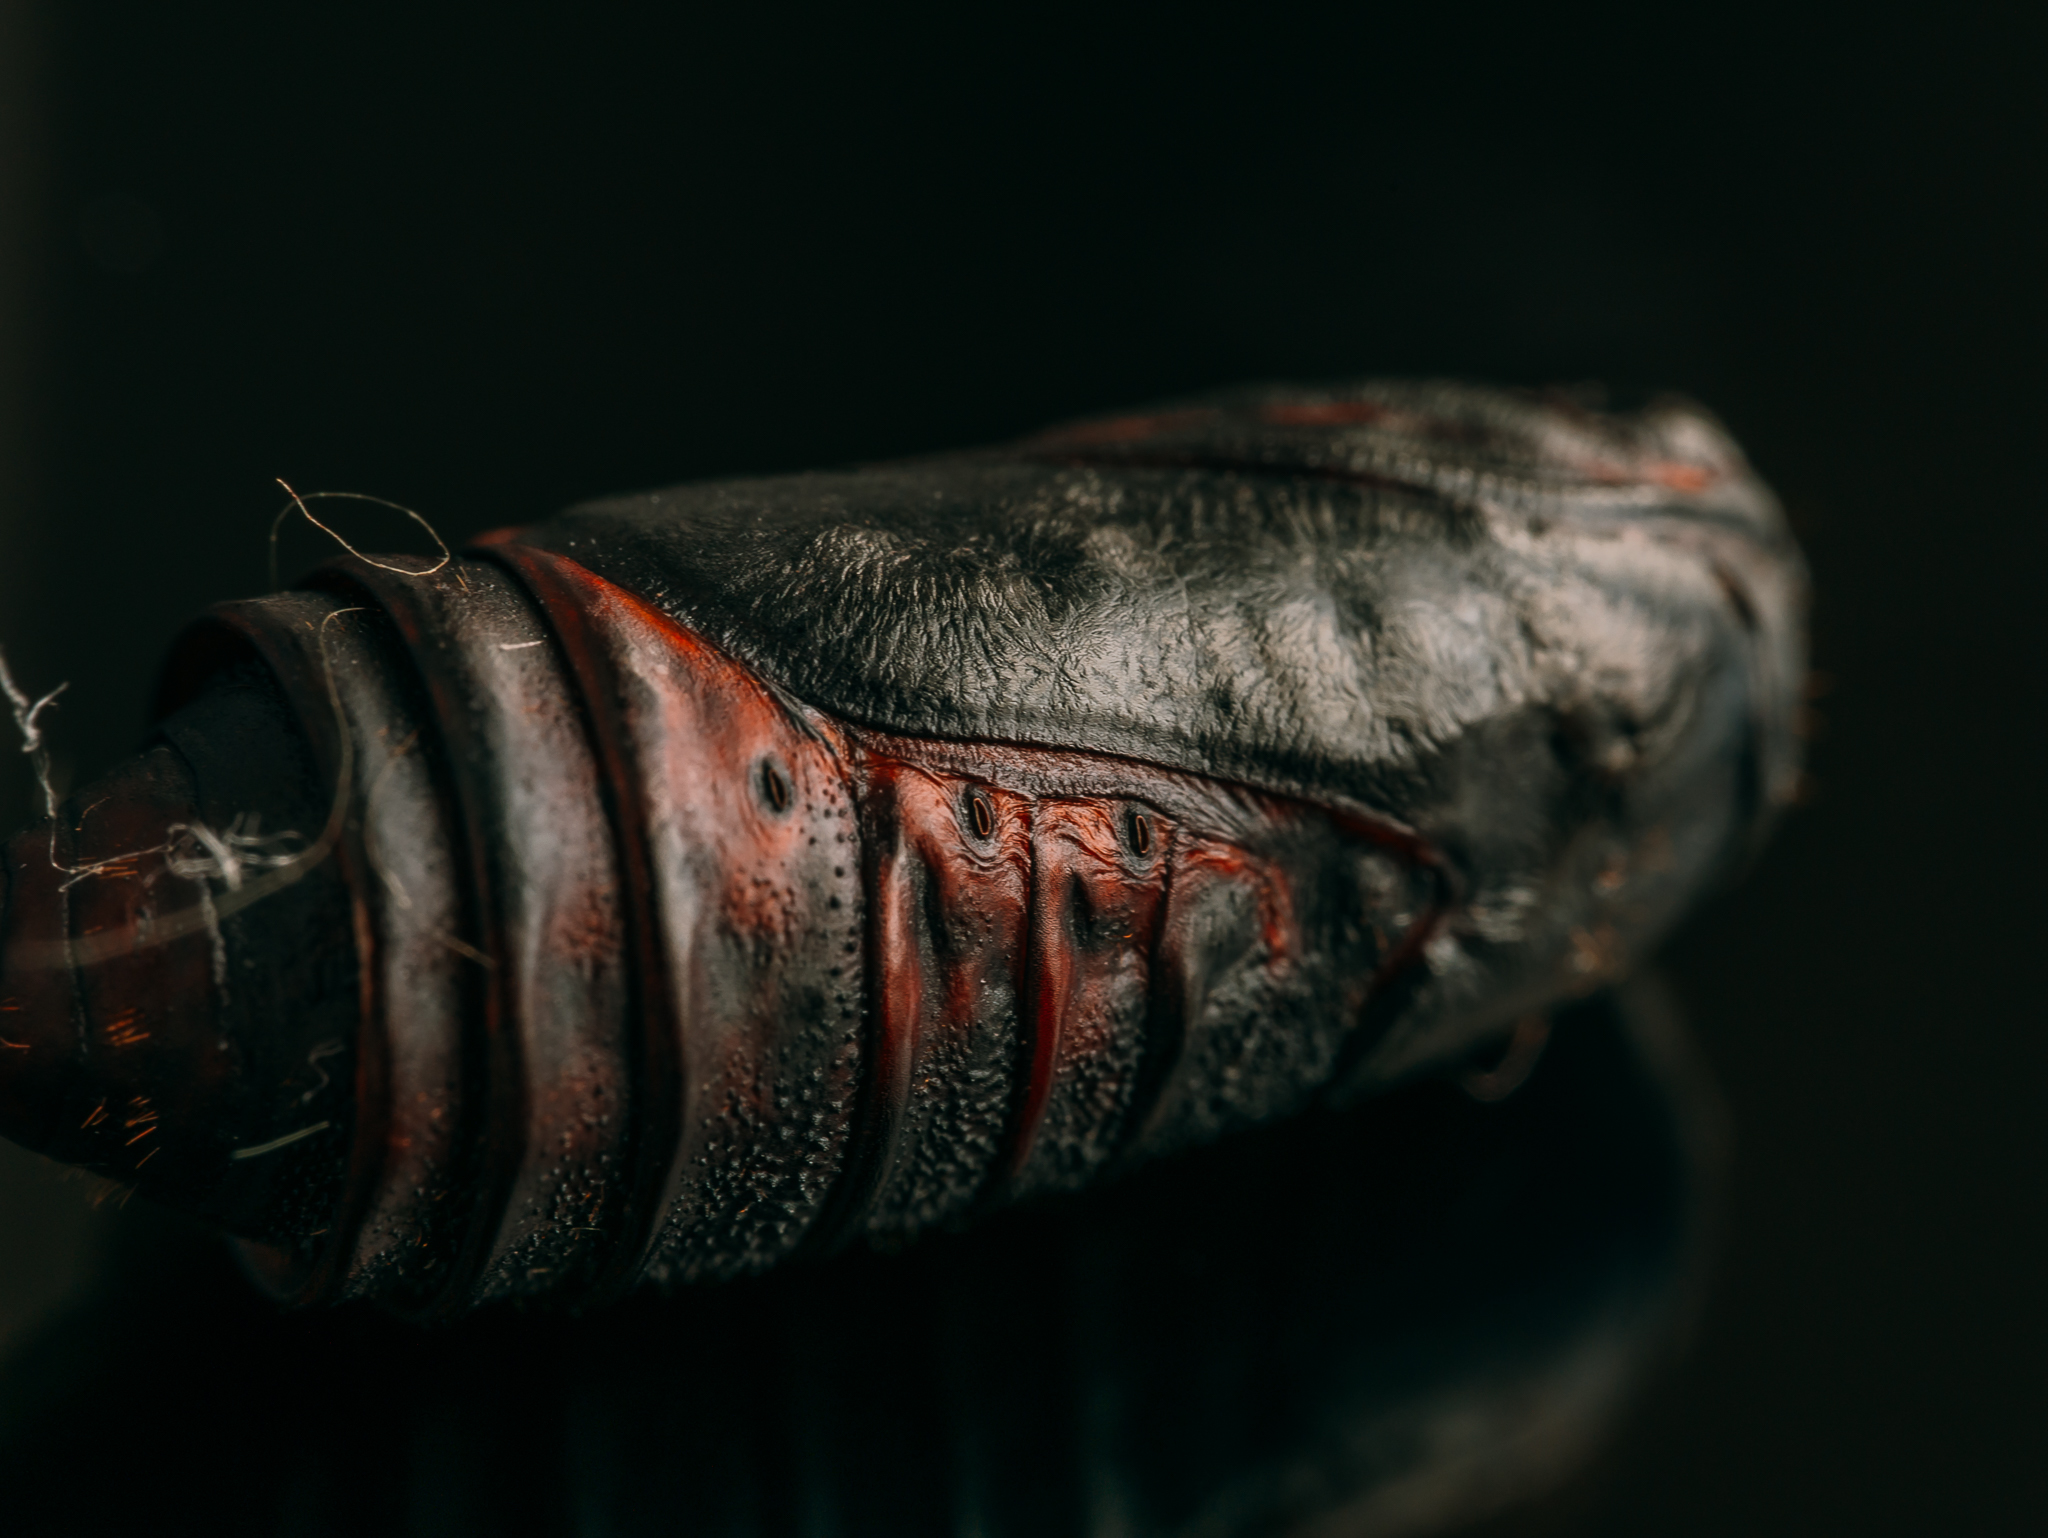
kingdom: Animalia
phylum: Arthropoda
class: Insecta
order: Lepidoptera
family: Noctuidae
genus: Acronicta
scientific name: Acronicta rumicis
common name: Knot grass
